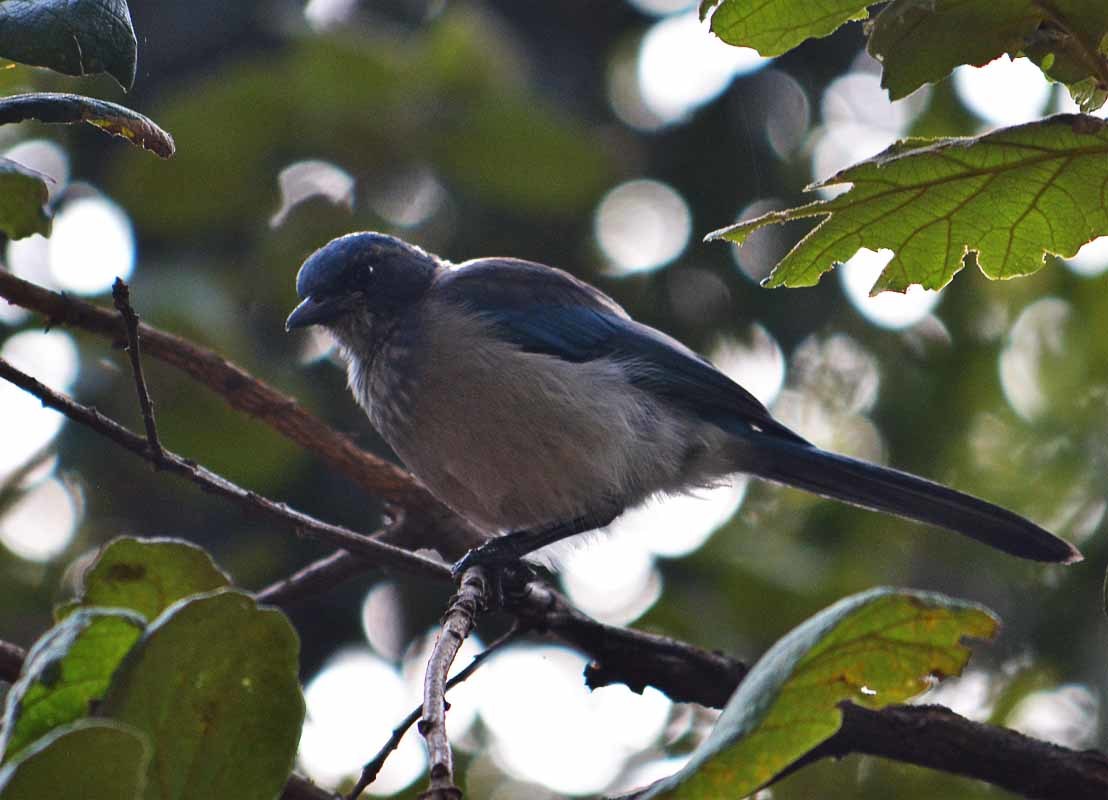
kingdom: Animalia
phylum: Chordata
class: Aves
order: Passeriformes
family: Corvidae
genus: Aphelocoma
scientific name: Aphelocoma woodhouseii
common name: Woodhouse's scrub-jay
